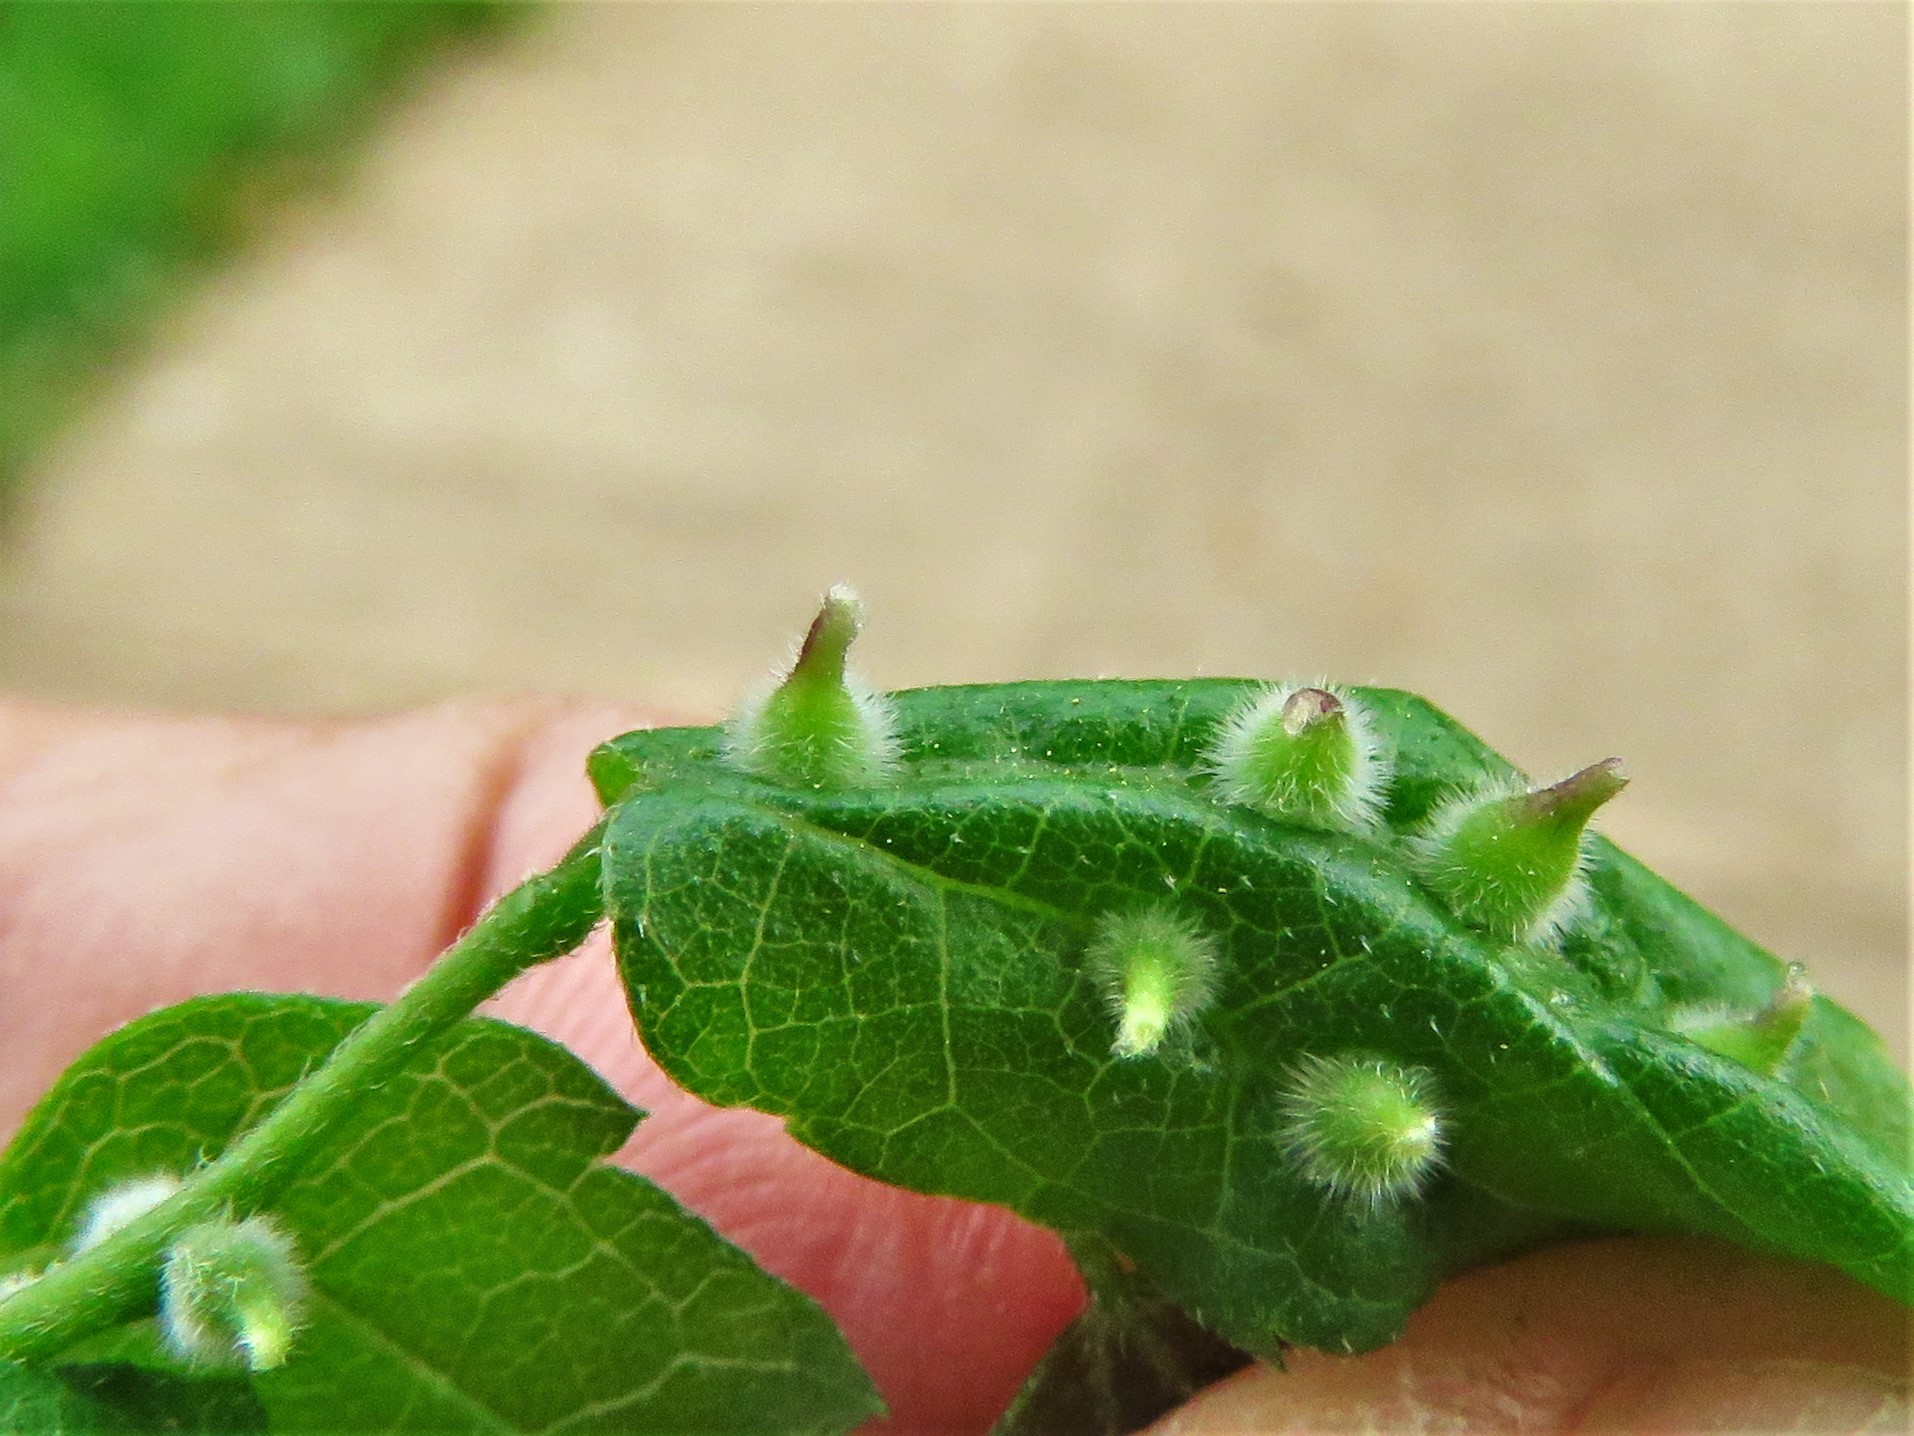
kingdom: Animalia
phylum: Arthropoda
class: Insecta
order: Diptera
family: Cecidomyiidae
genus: Celticecis
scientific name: Celticecis celtiphyllia
